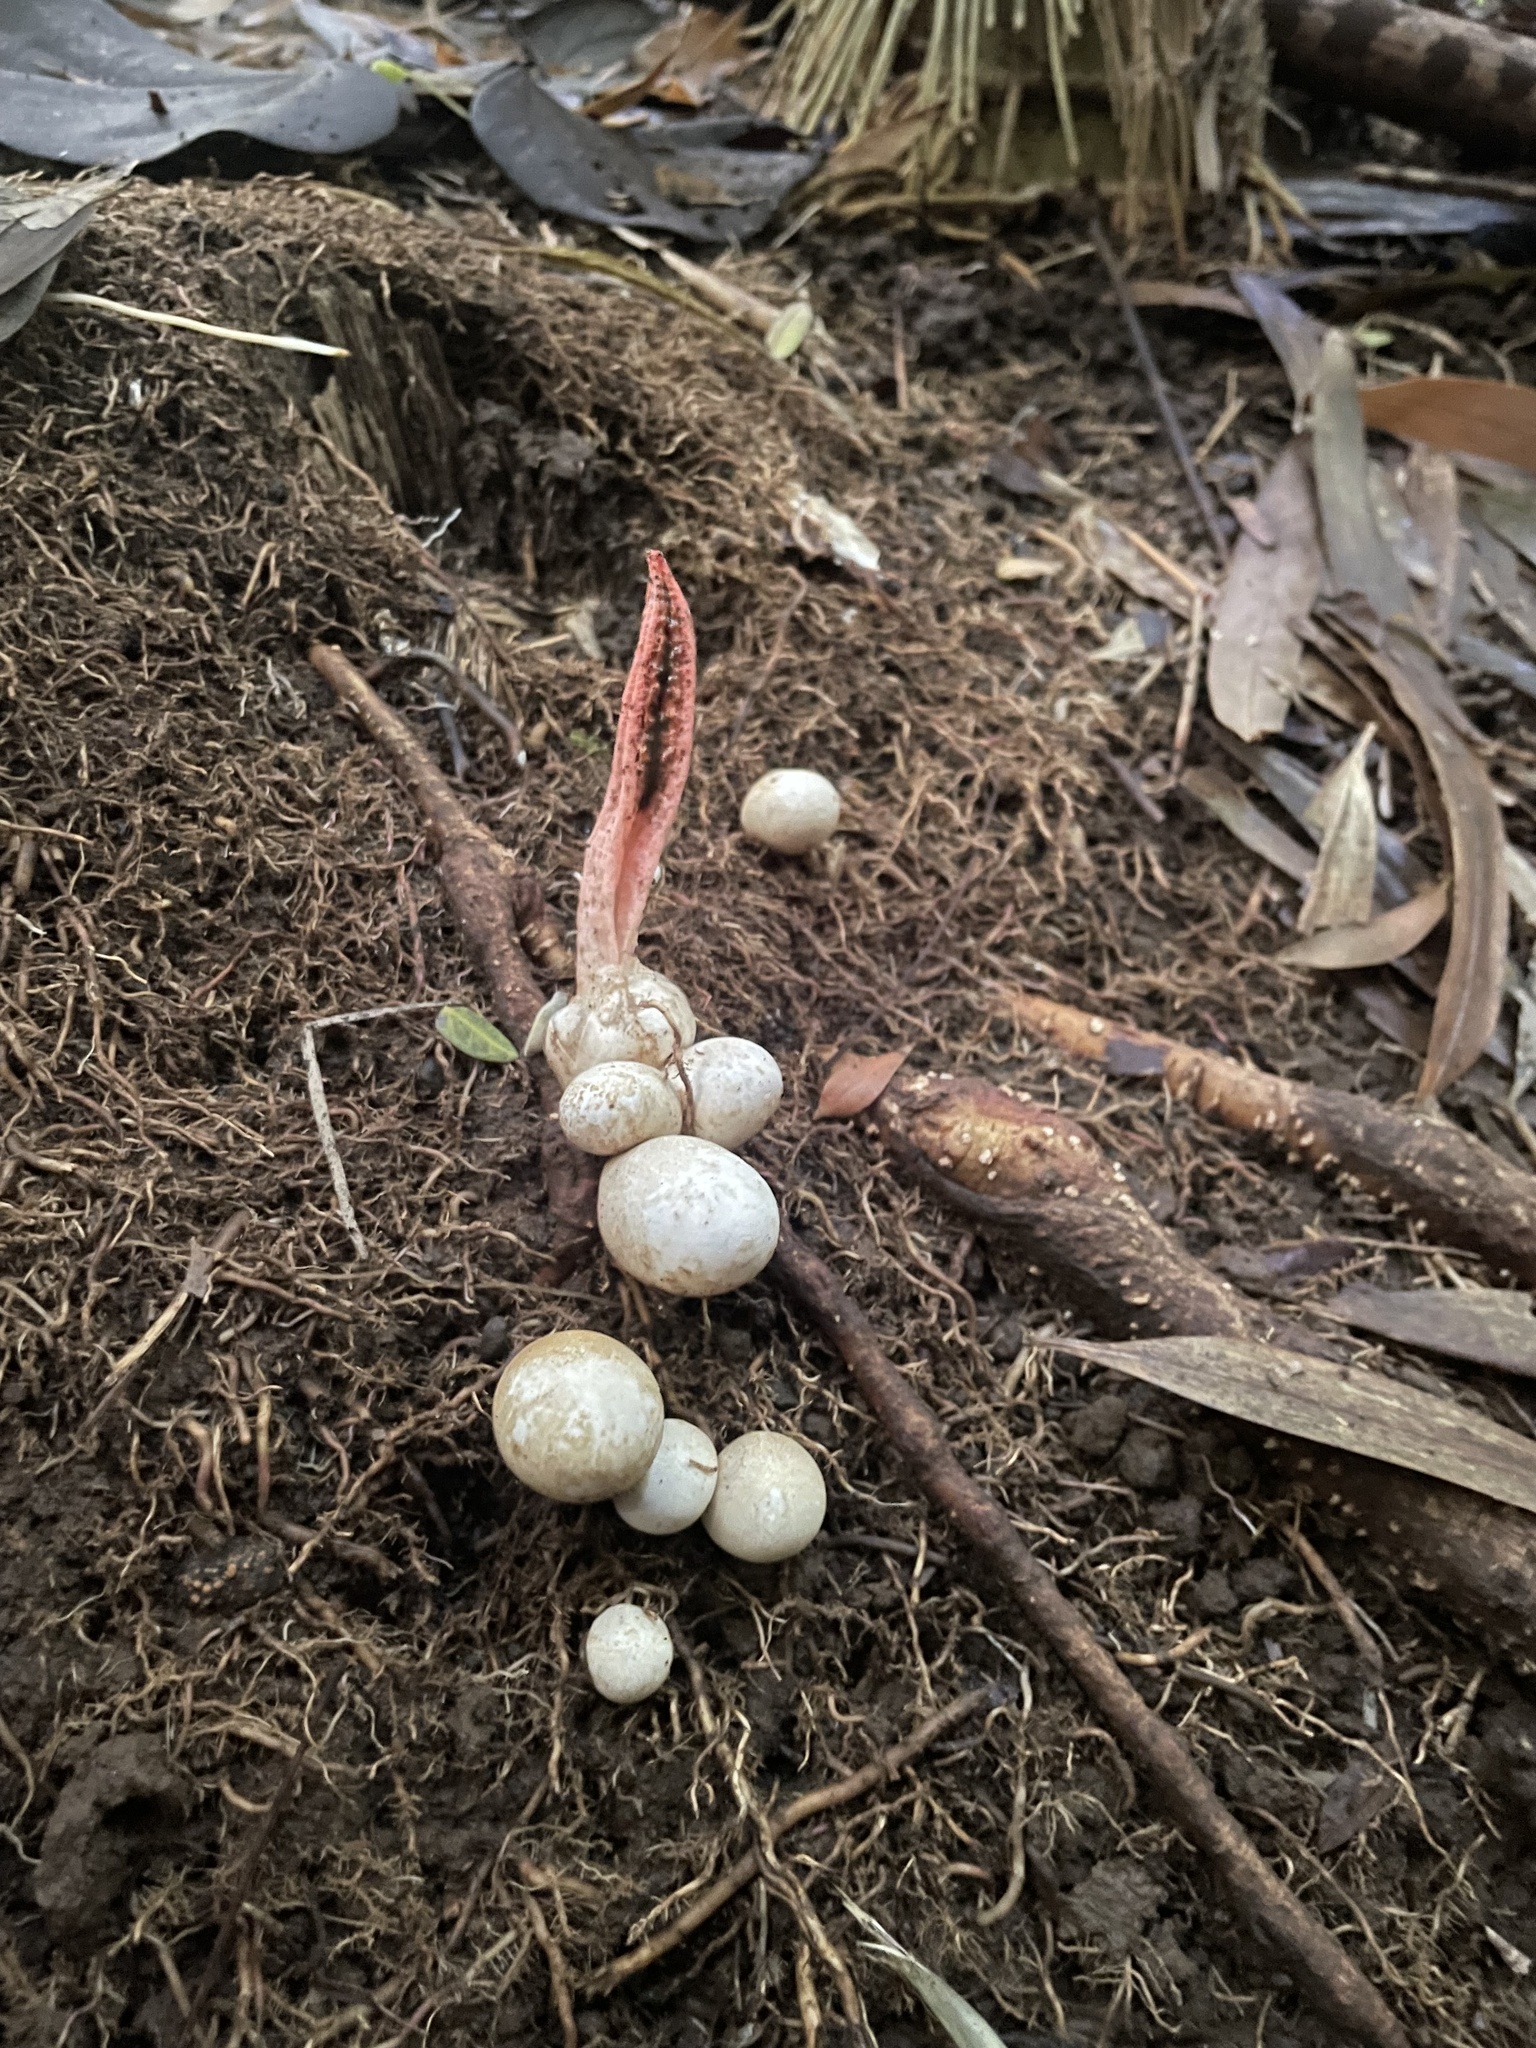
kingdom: Fungi
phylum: Basidiomycota
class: Agaricomycetes
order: Phallales
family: Phallaceae
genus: Pseudocolus
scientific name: Pseudocolus fusiformis
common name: Stinky squid
